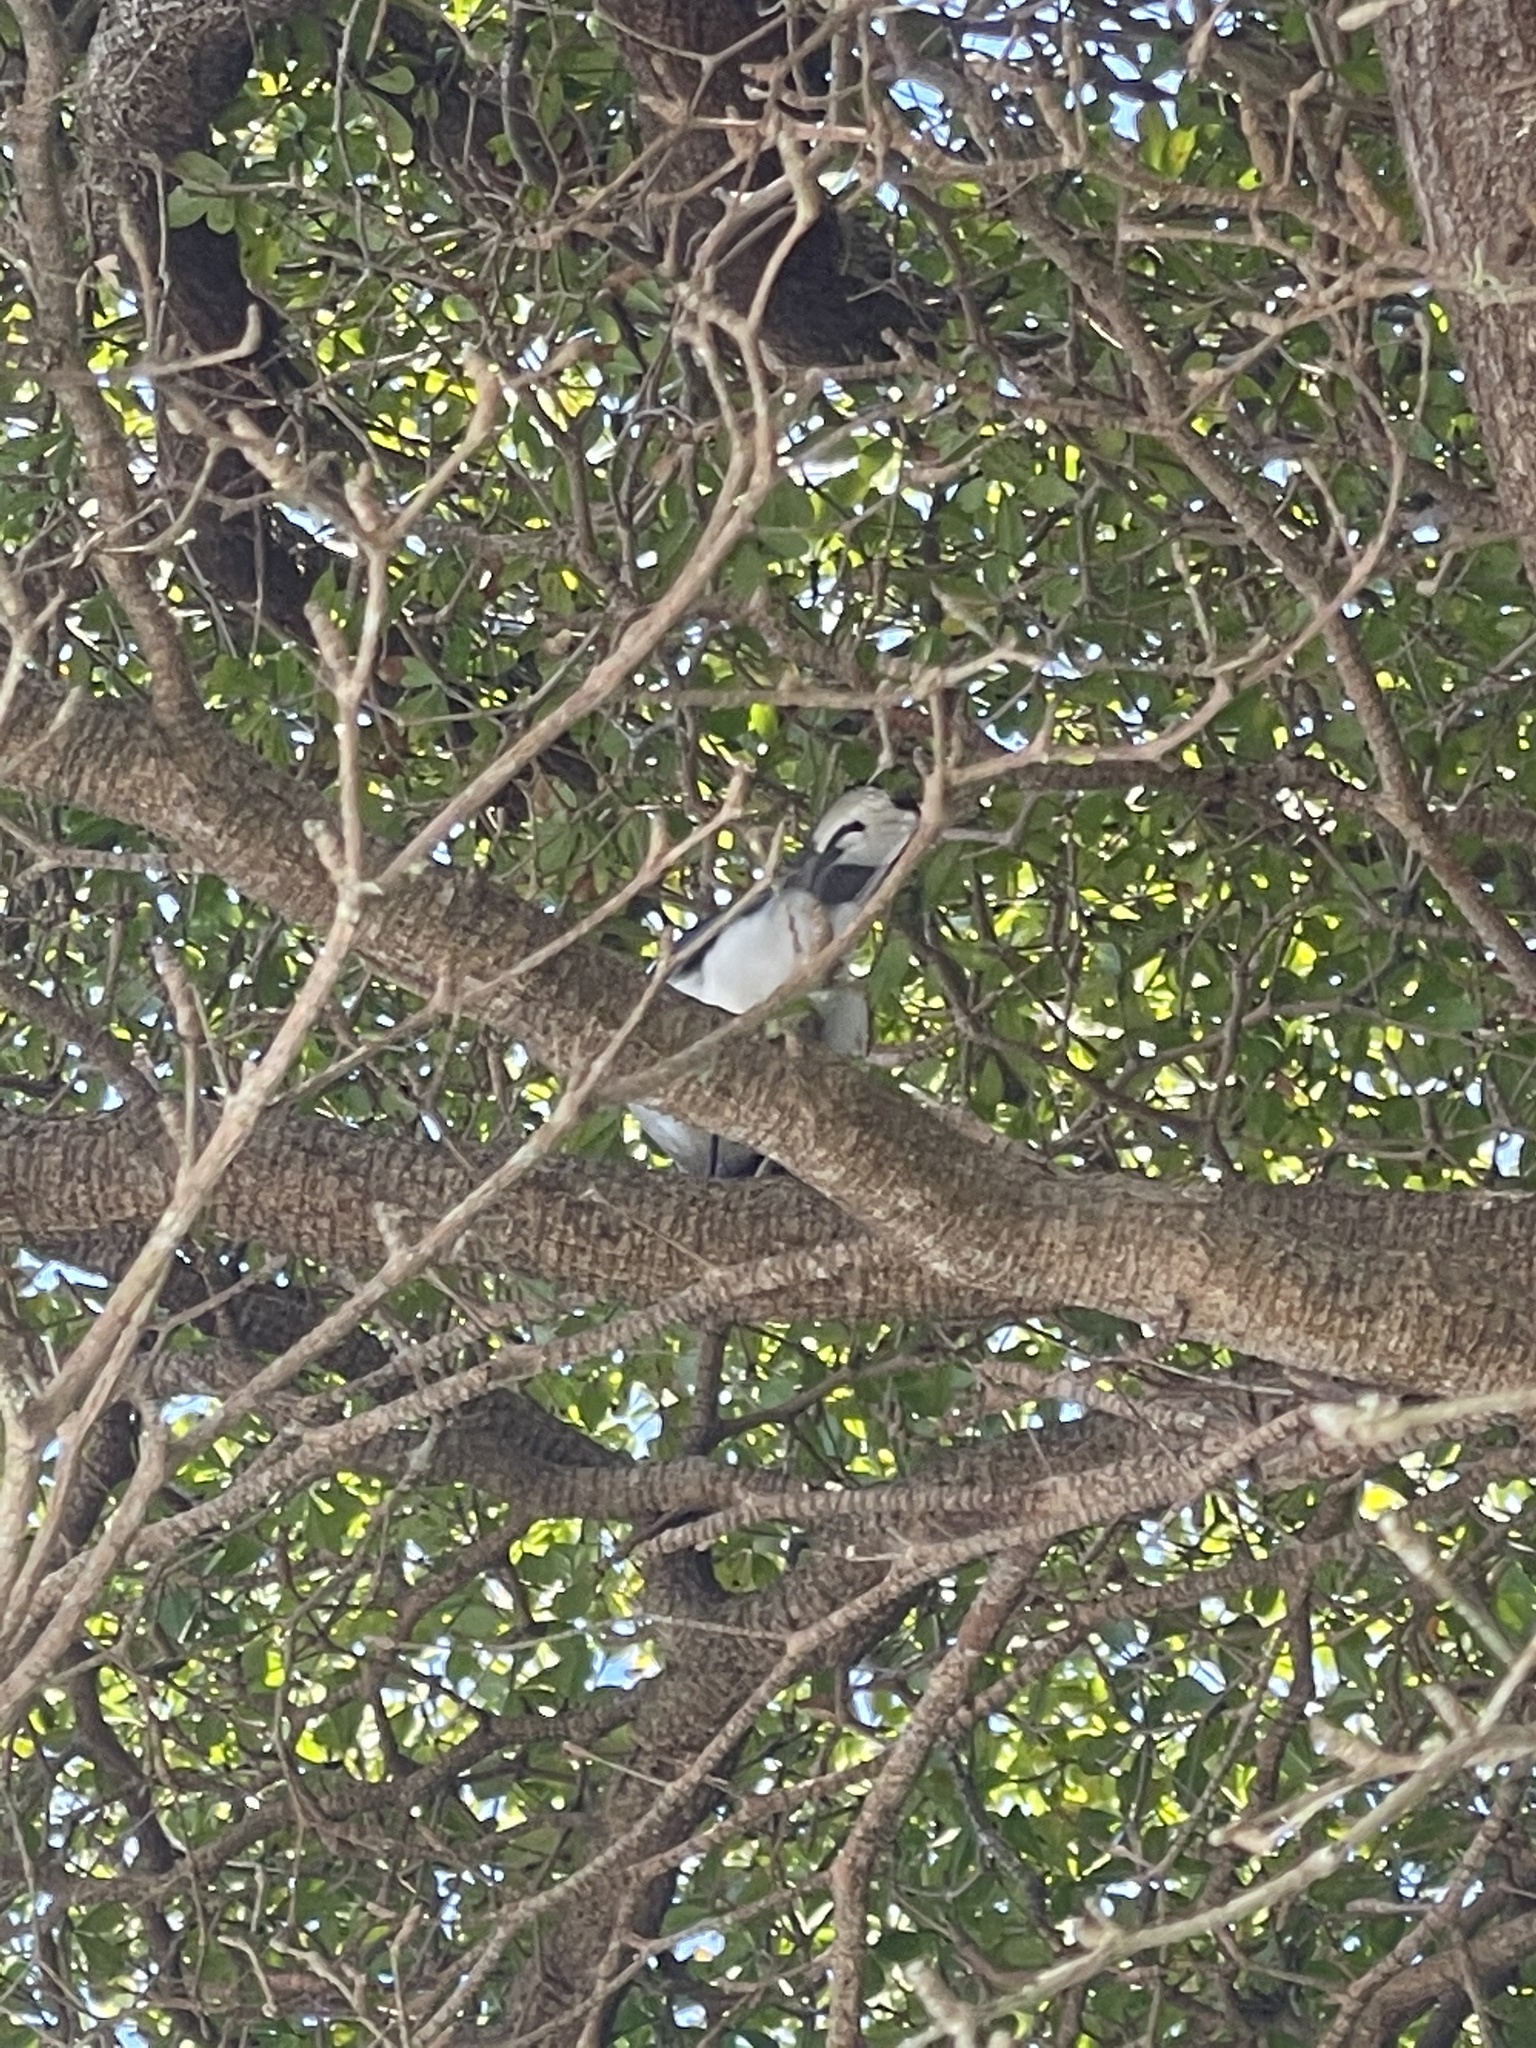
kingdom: Animalia
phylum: Chordata
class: Aves
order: Passeriformes
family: Corvidae
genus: Cyanocitta
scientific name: Cyanocitta cristata
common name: Blue jay
